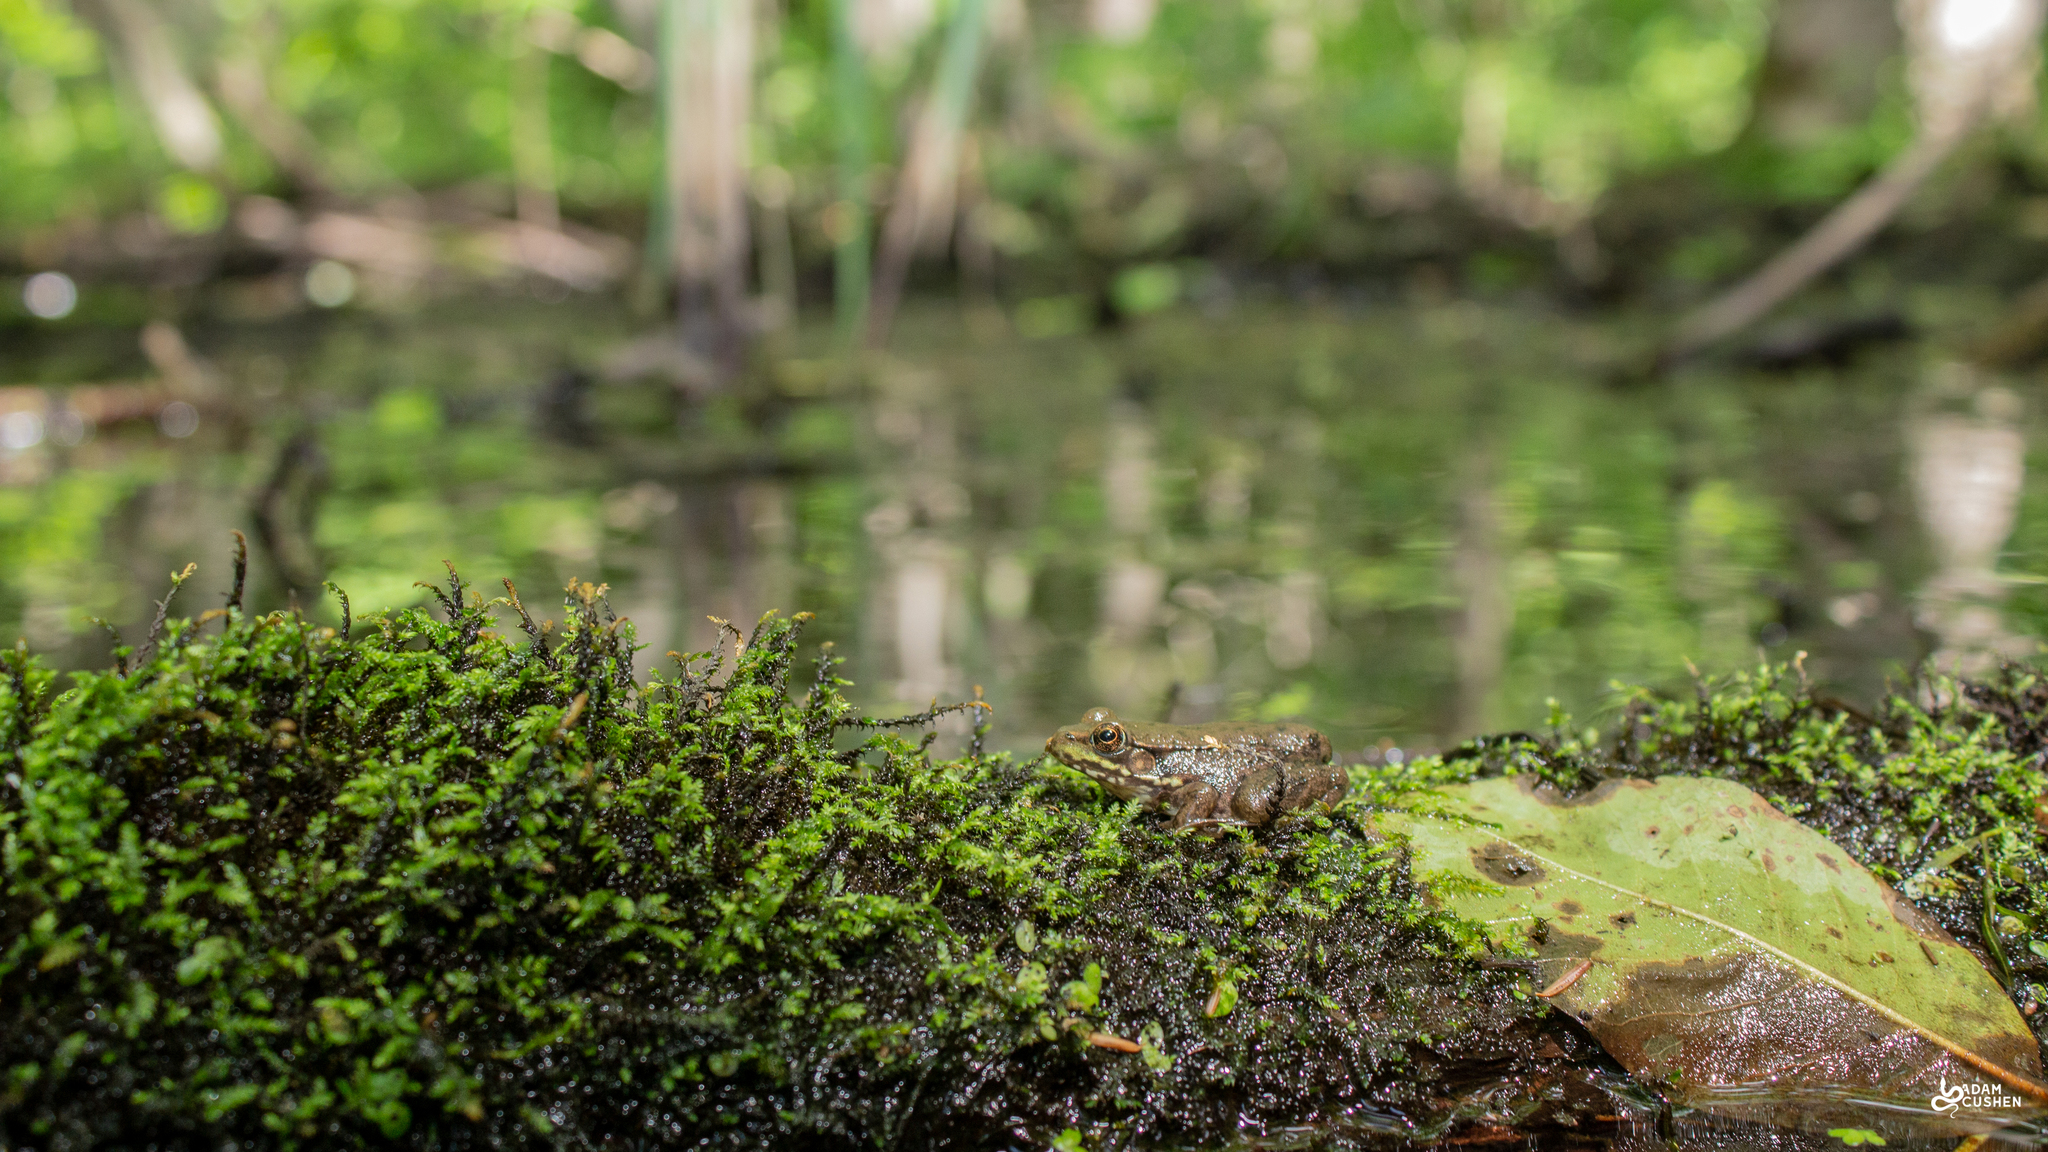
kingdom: Animalia
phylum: Chordata
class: Amphibia
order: Anura
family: Ranidae
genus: Lithobates
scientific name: Lithobates clamitans
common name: Green frog
